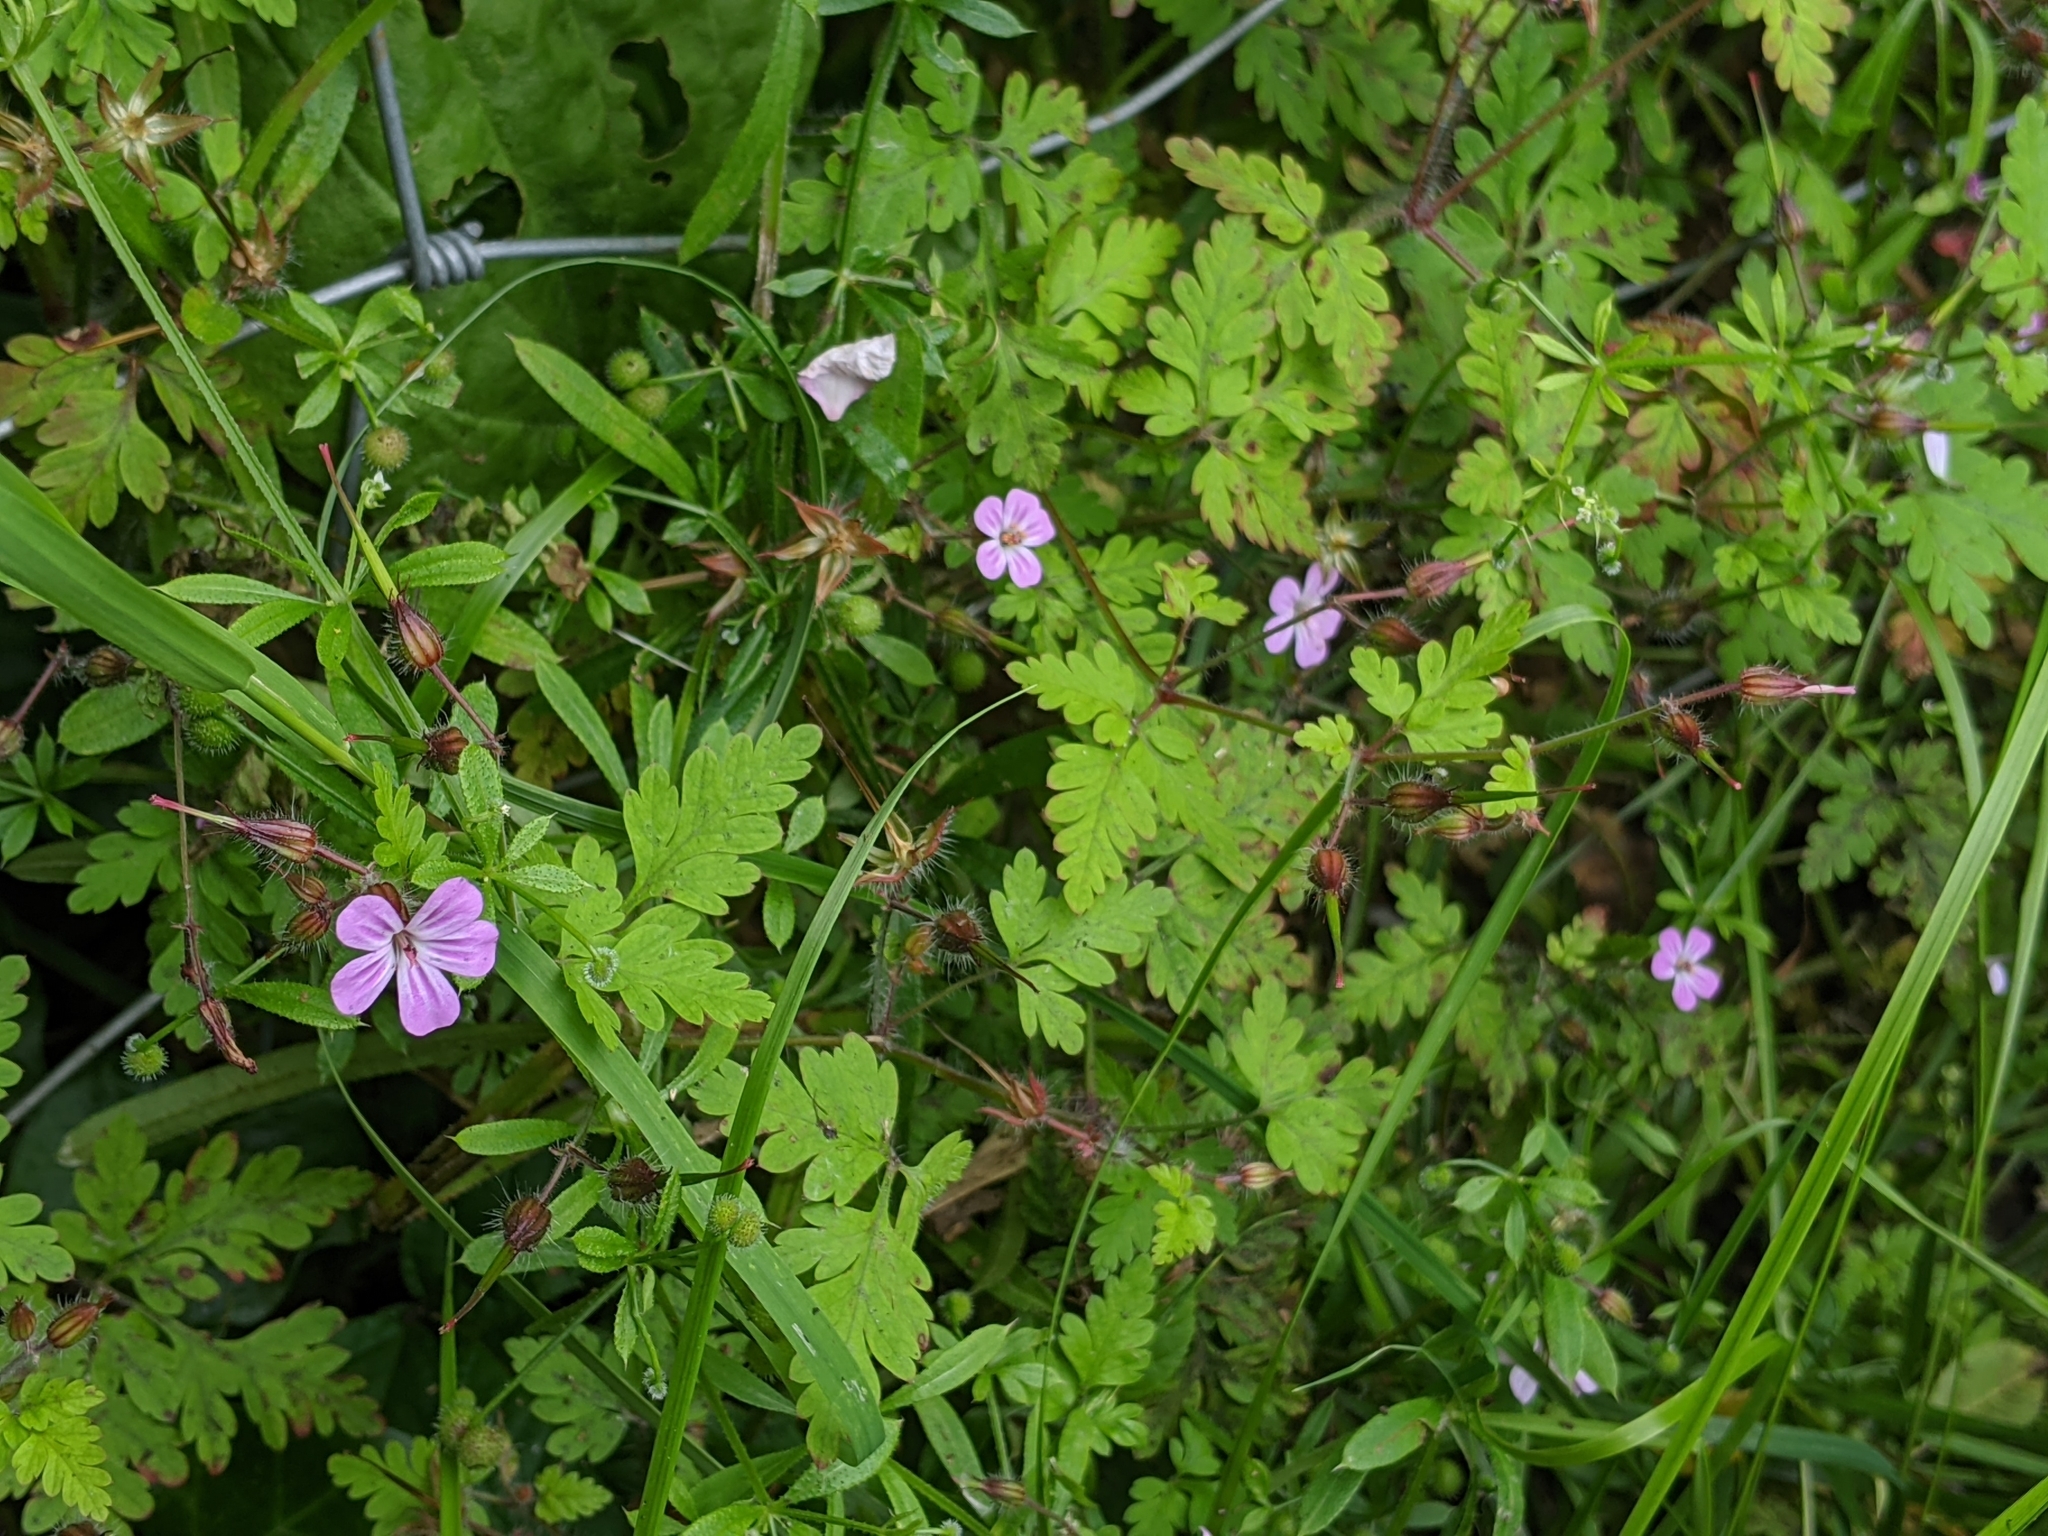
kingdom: Plantae
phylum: Tracheophyta
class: Magnoliopsida
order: Geraniales
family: Geraniaceae
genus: Geranium
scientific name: Geranium robertianum
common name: Herb-robert
